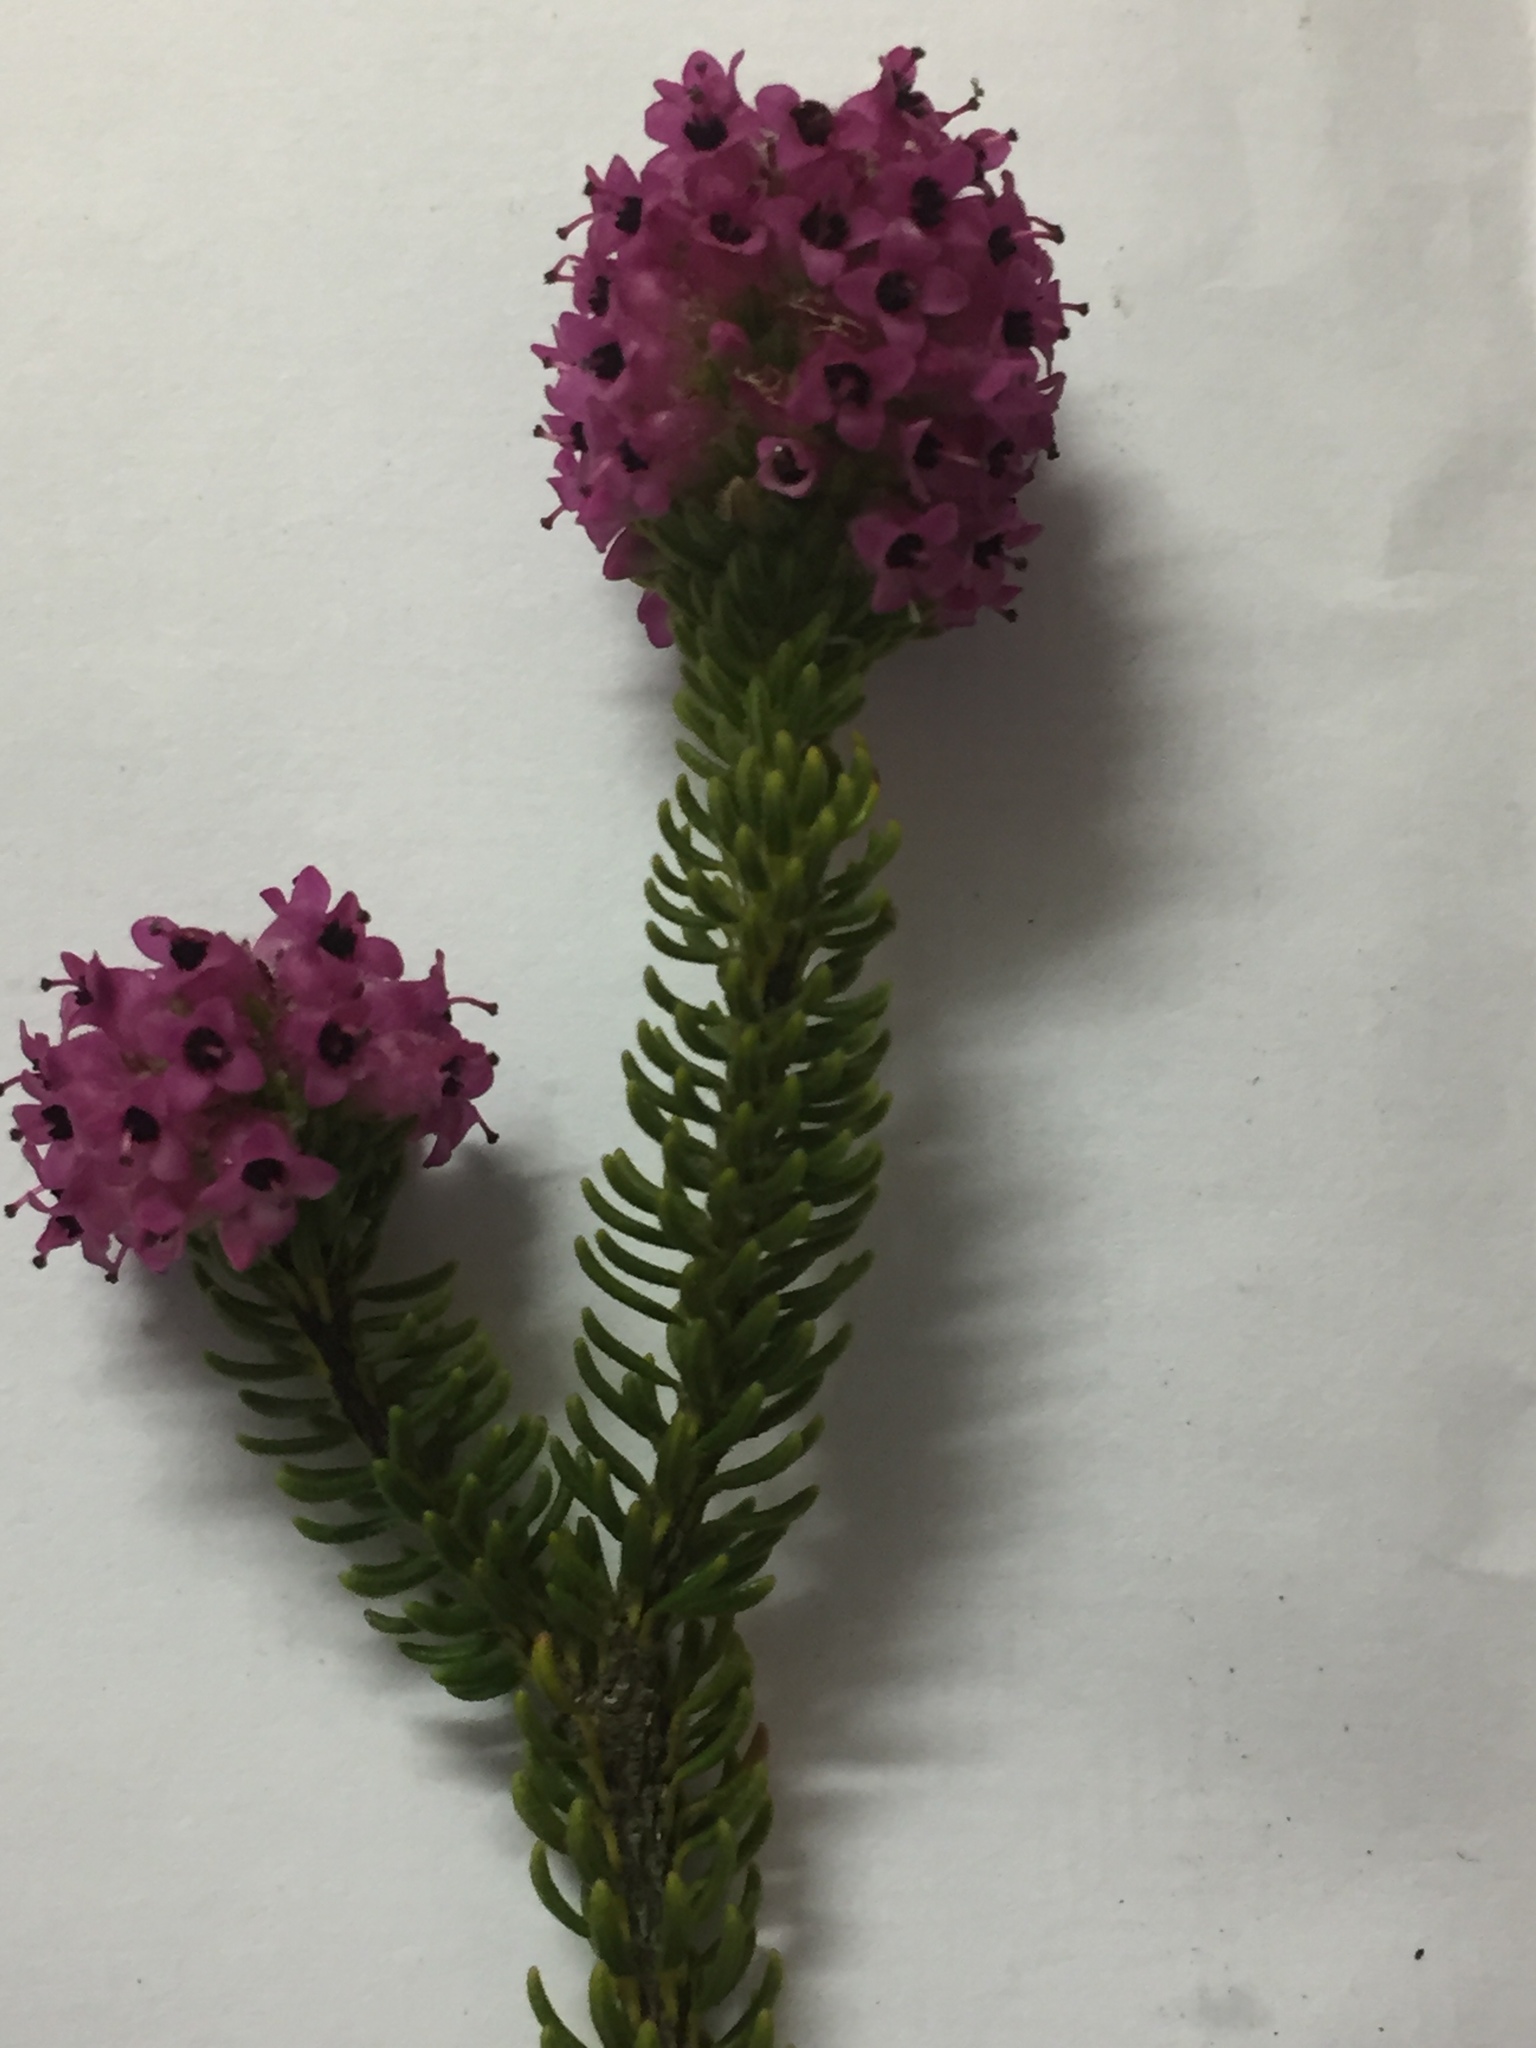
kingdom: Plantae
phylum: Tracheophyta
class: Magnoliopsida
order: Ericales
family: Ericaceae
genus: Erica
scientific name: Erica empetrina
